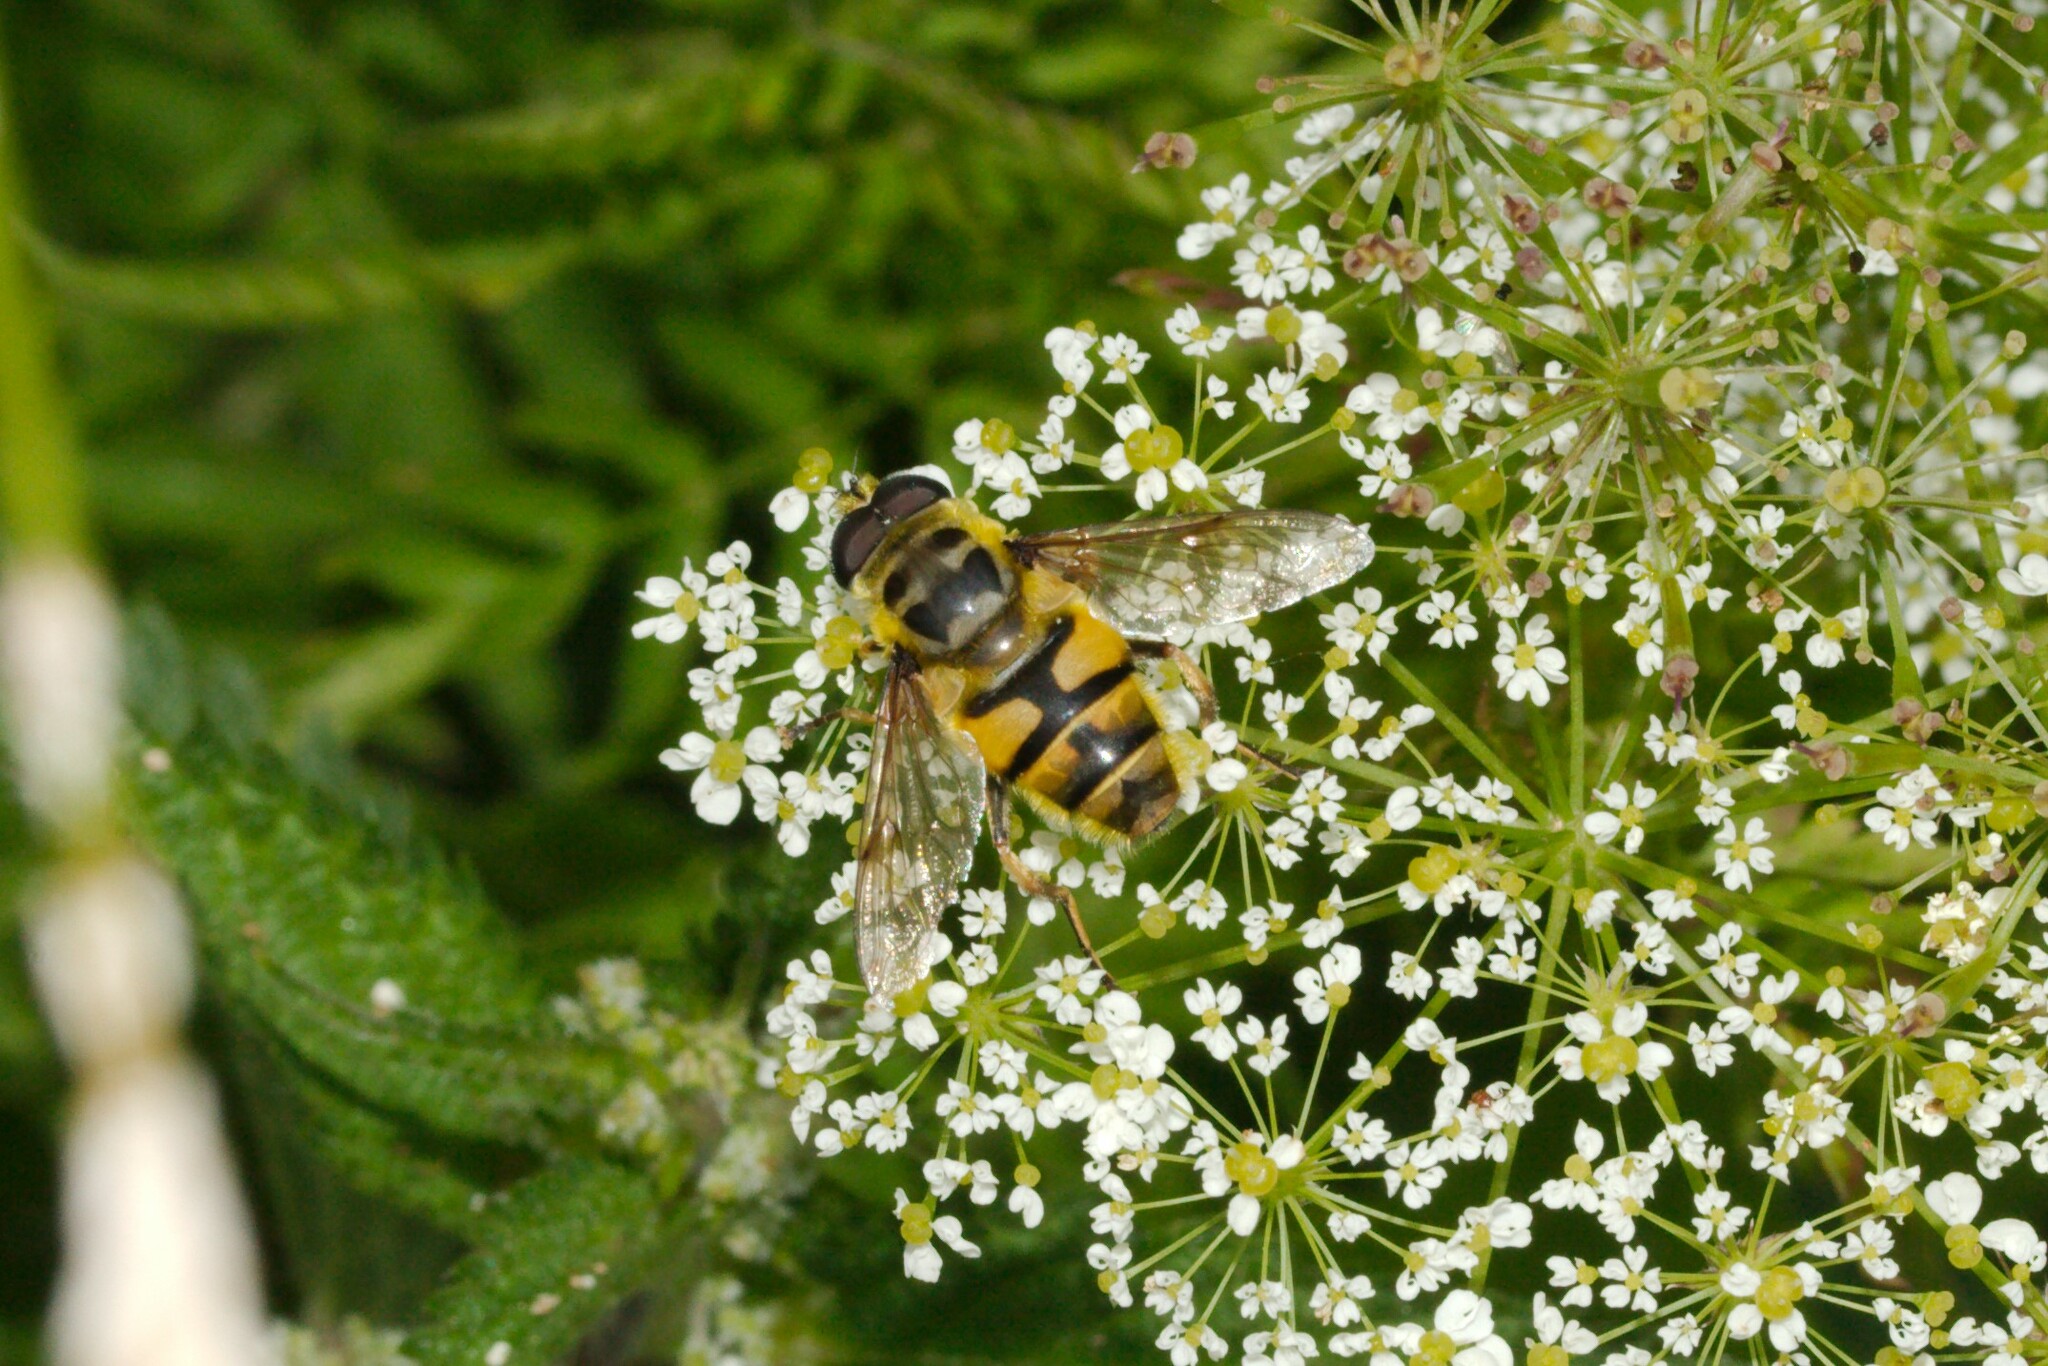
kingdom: Animalia
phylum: Arthropoda
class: Insecta
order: Diptera
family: Syrphidae
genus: Myathropa
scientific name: Myathropa florea
